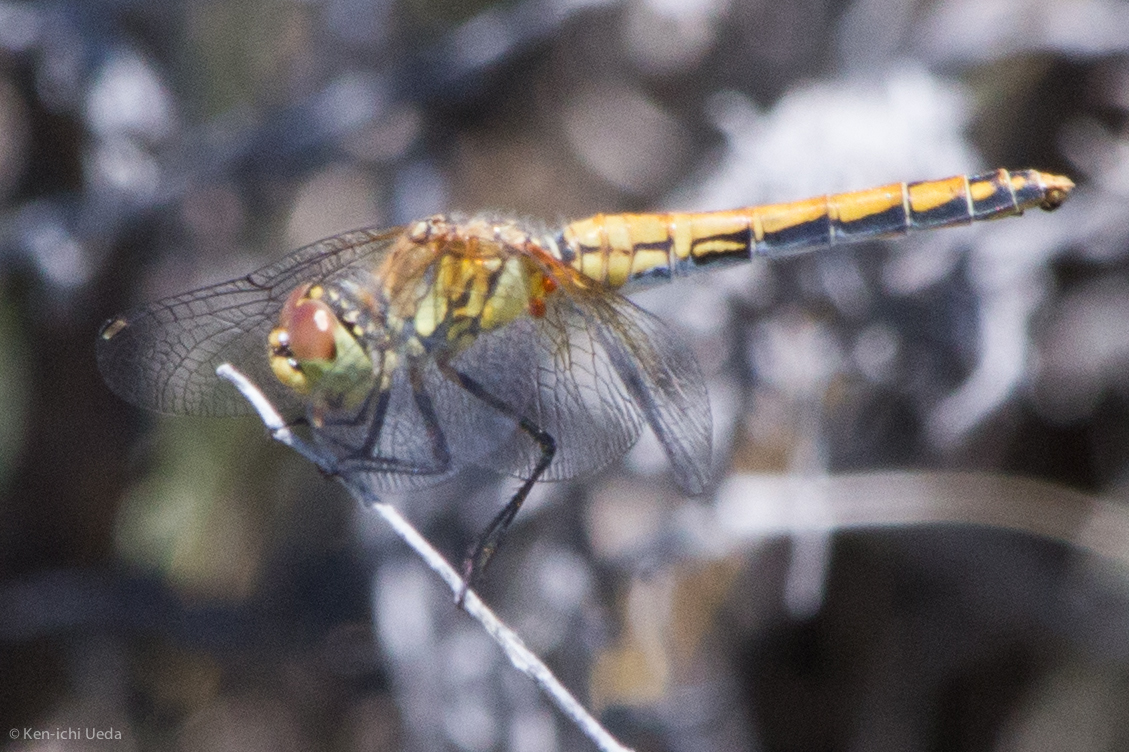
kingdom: Animalia
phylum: Arthropoda
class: Insecta
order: Odonata
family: Libellulidae
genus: Sympetrum
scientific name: Sympetrum semicinctum
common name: Band-winged meadowhawk
